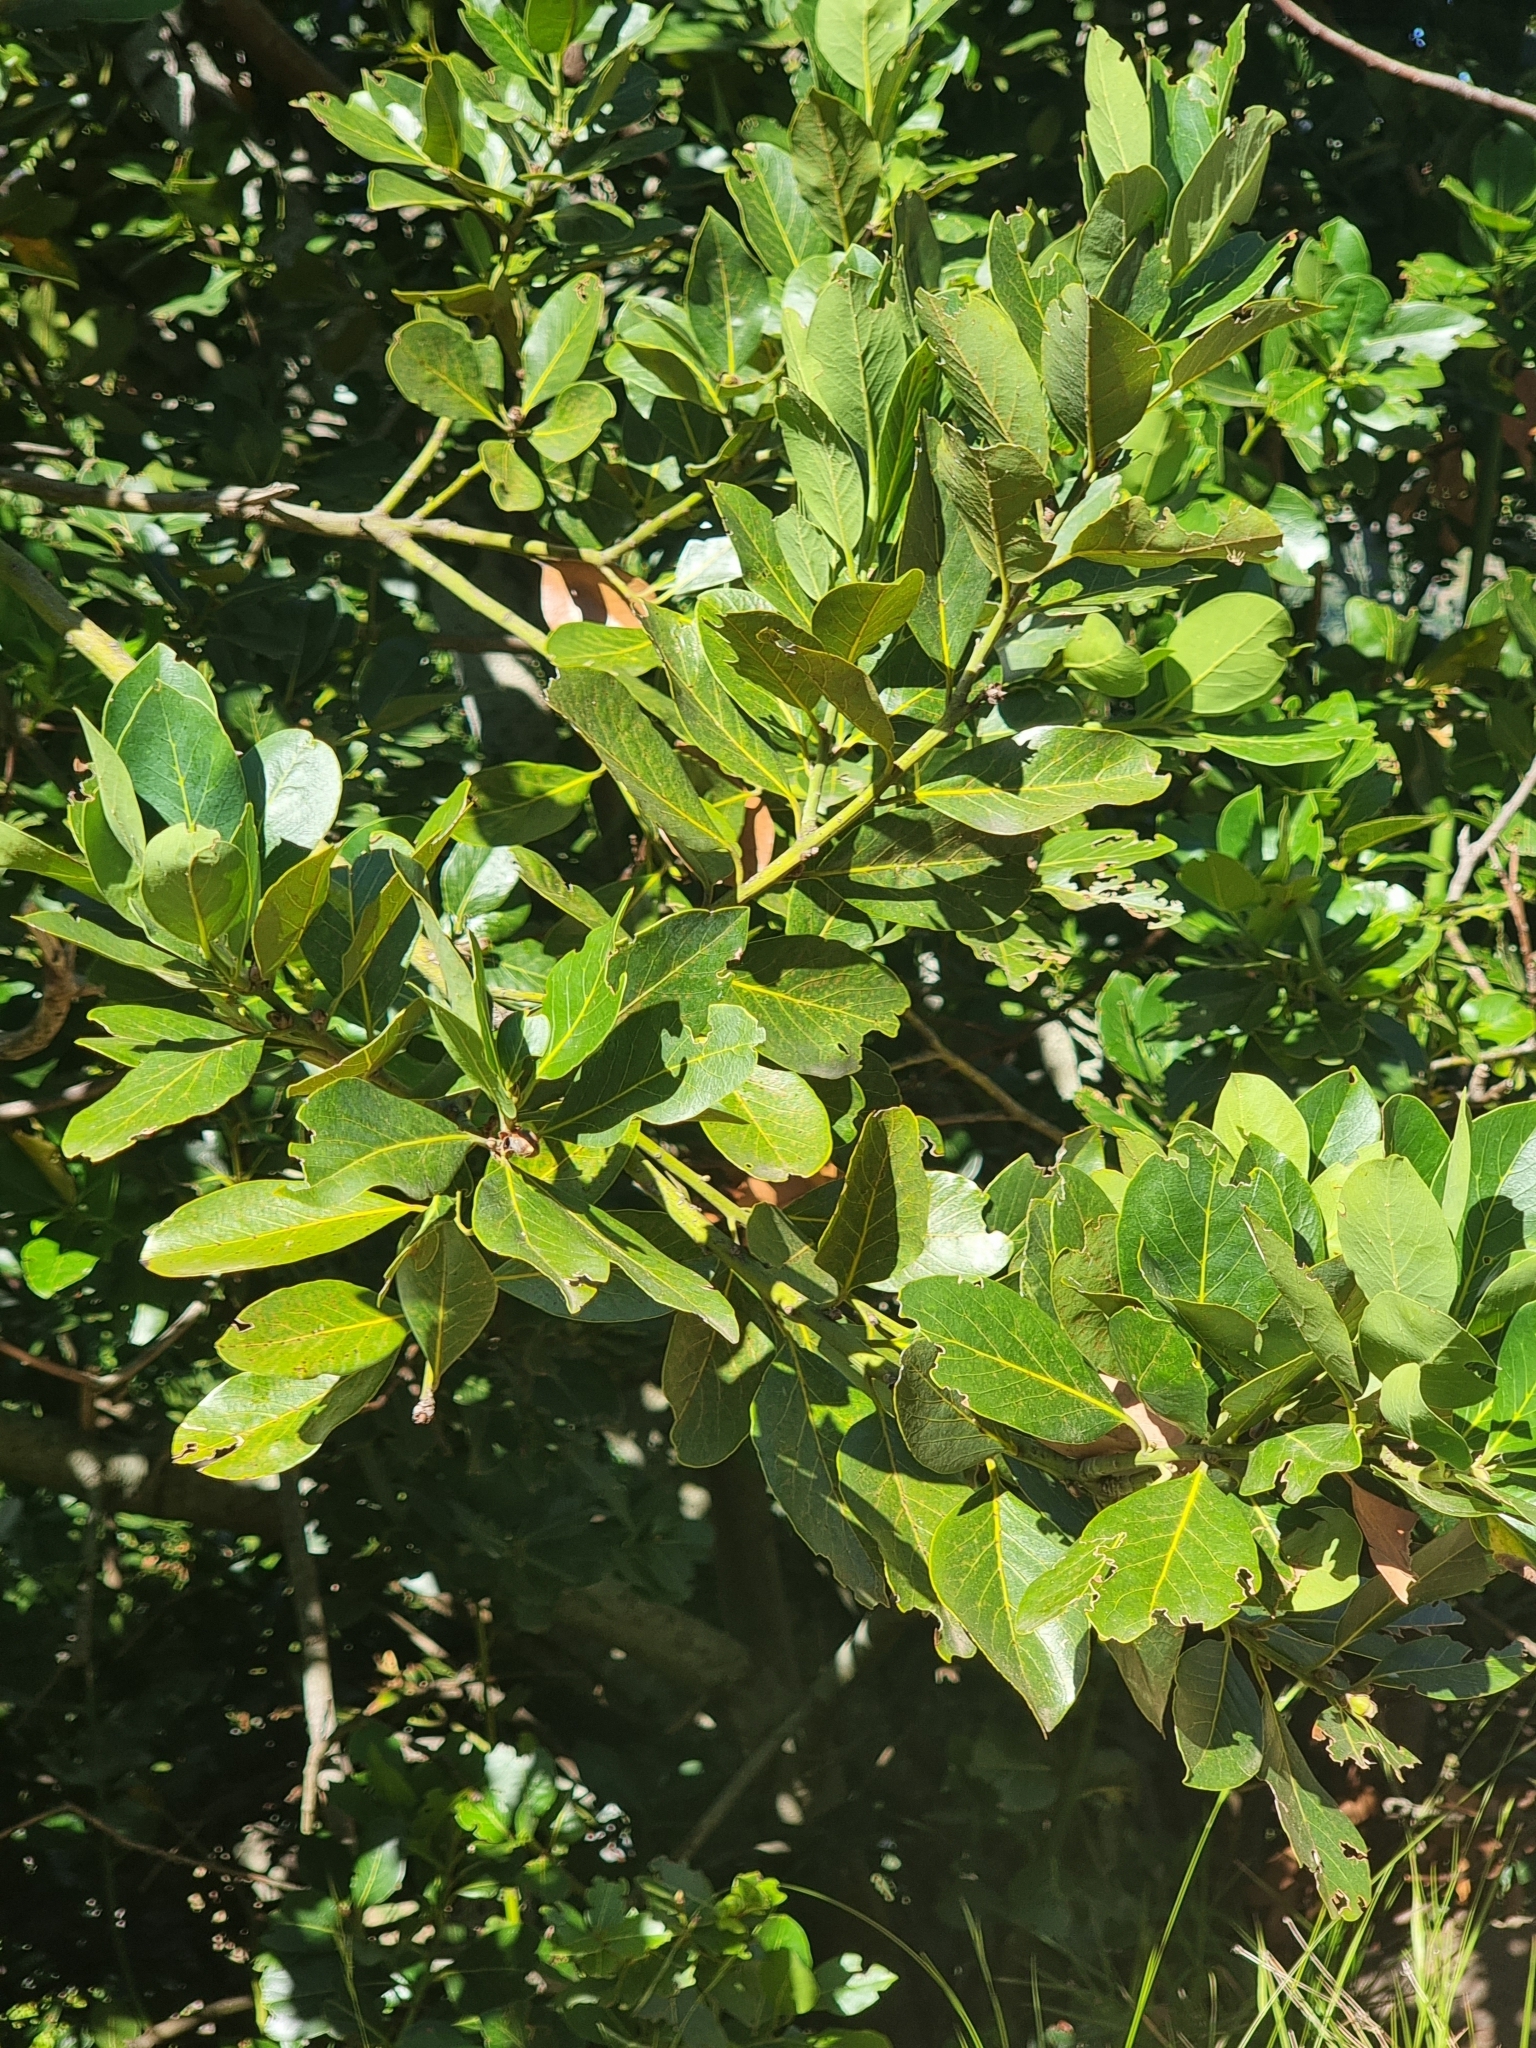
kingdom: Plantae
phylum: Tracheophyta
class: Magnoliopsida
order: Laurales
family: Lauraceae
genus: Laurus
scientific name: Laurus novocanariensis
